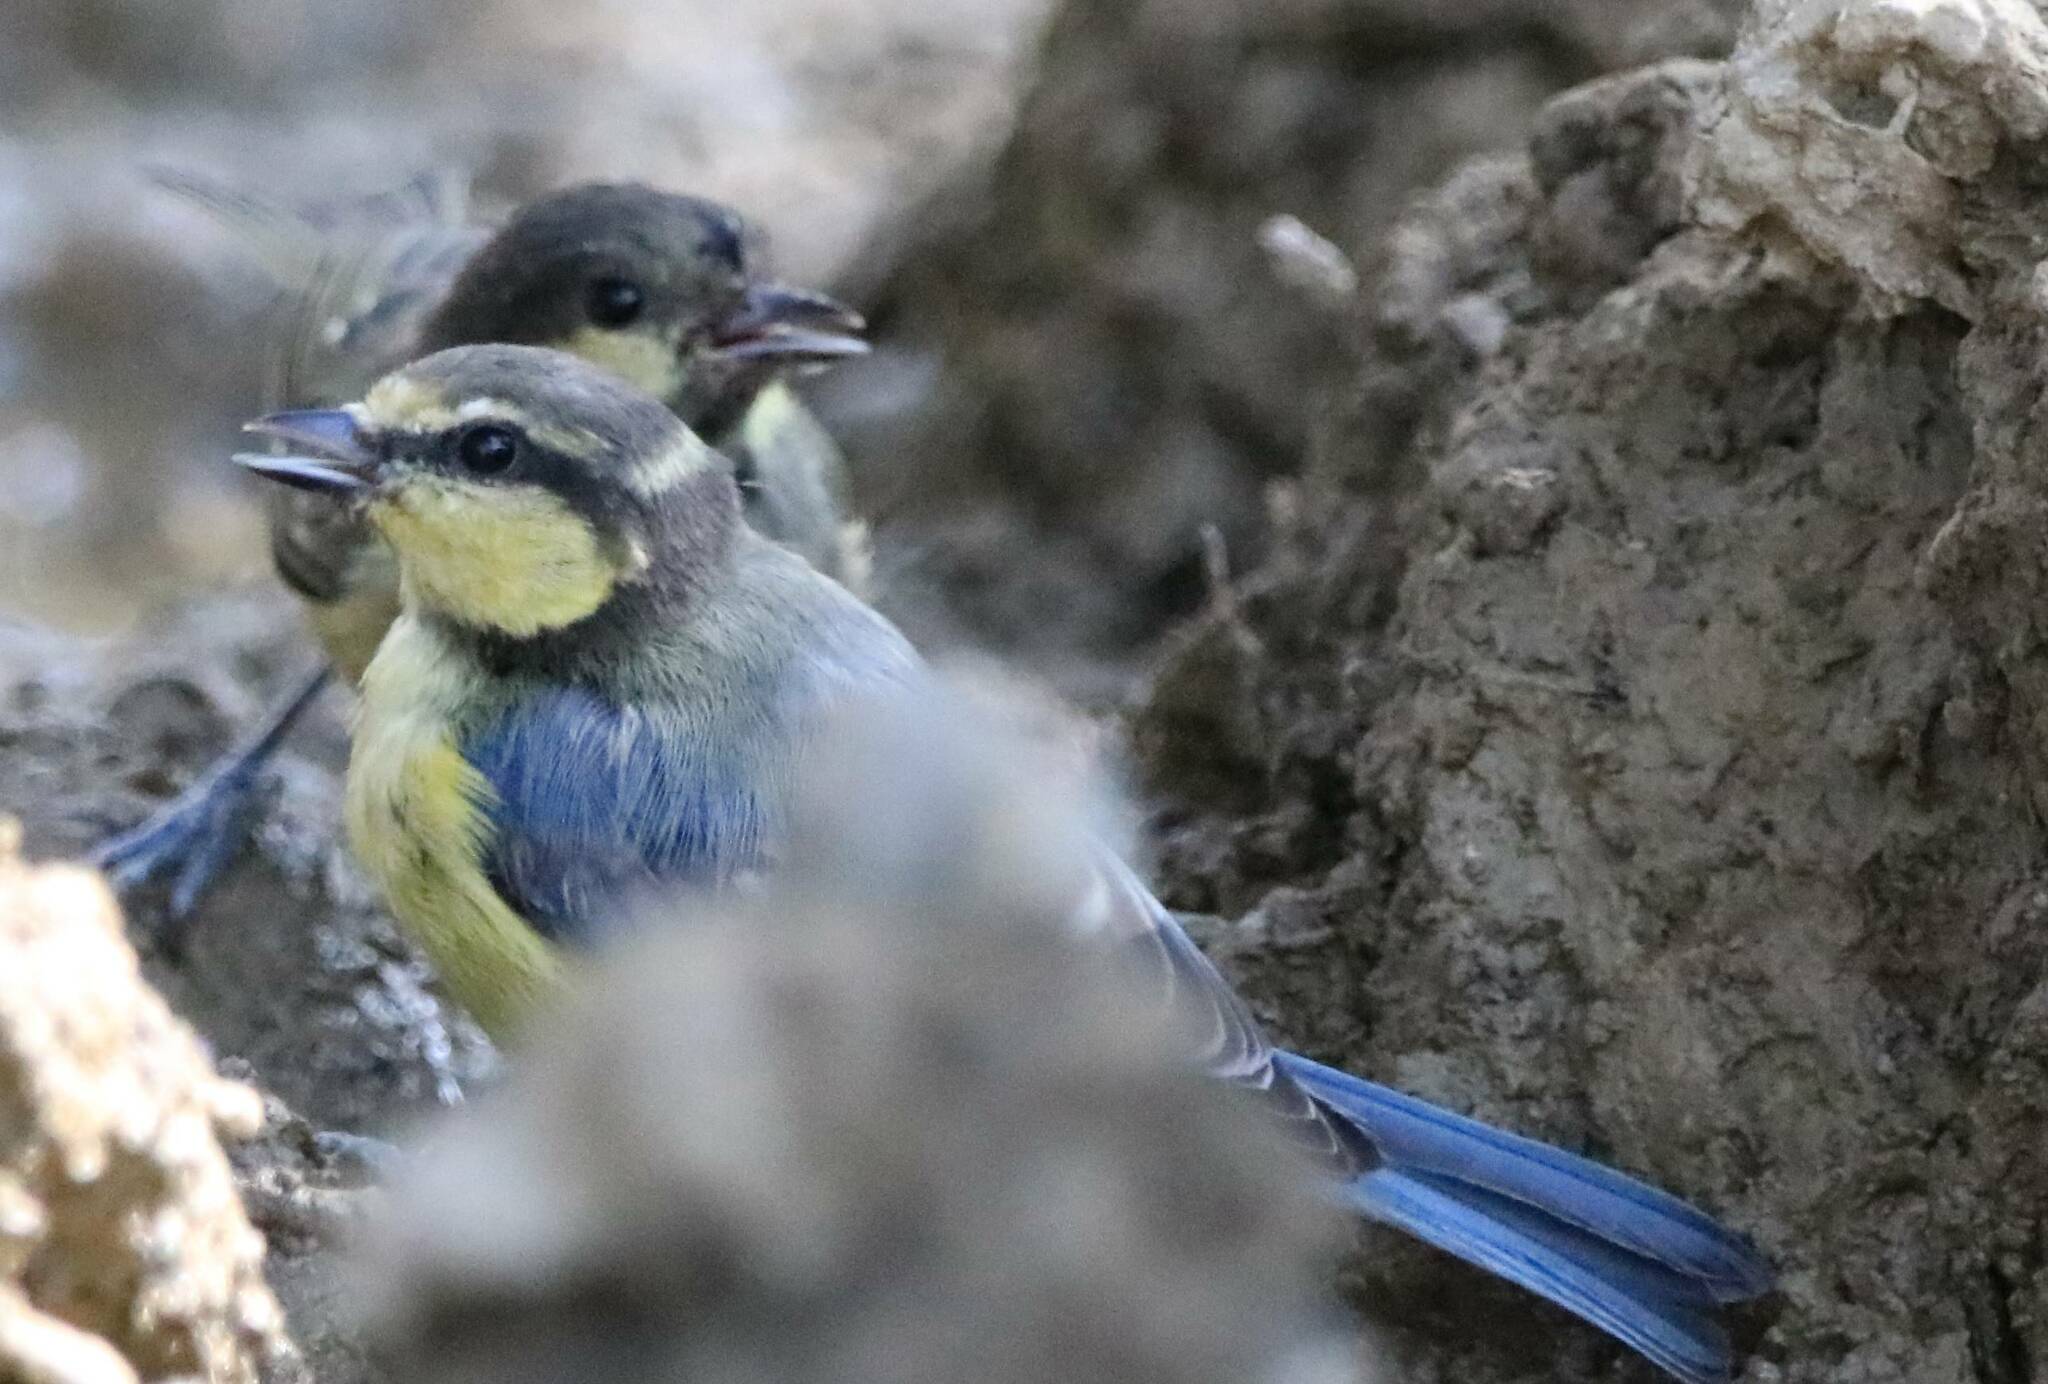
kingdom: Animalia
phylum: Chordata
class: Aves
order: Passeriformes
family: Paridae
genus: Cyanistes
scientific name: Cyanistes teneriffae
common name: African blue tit
